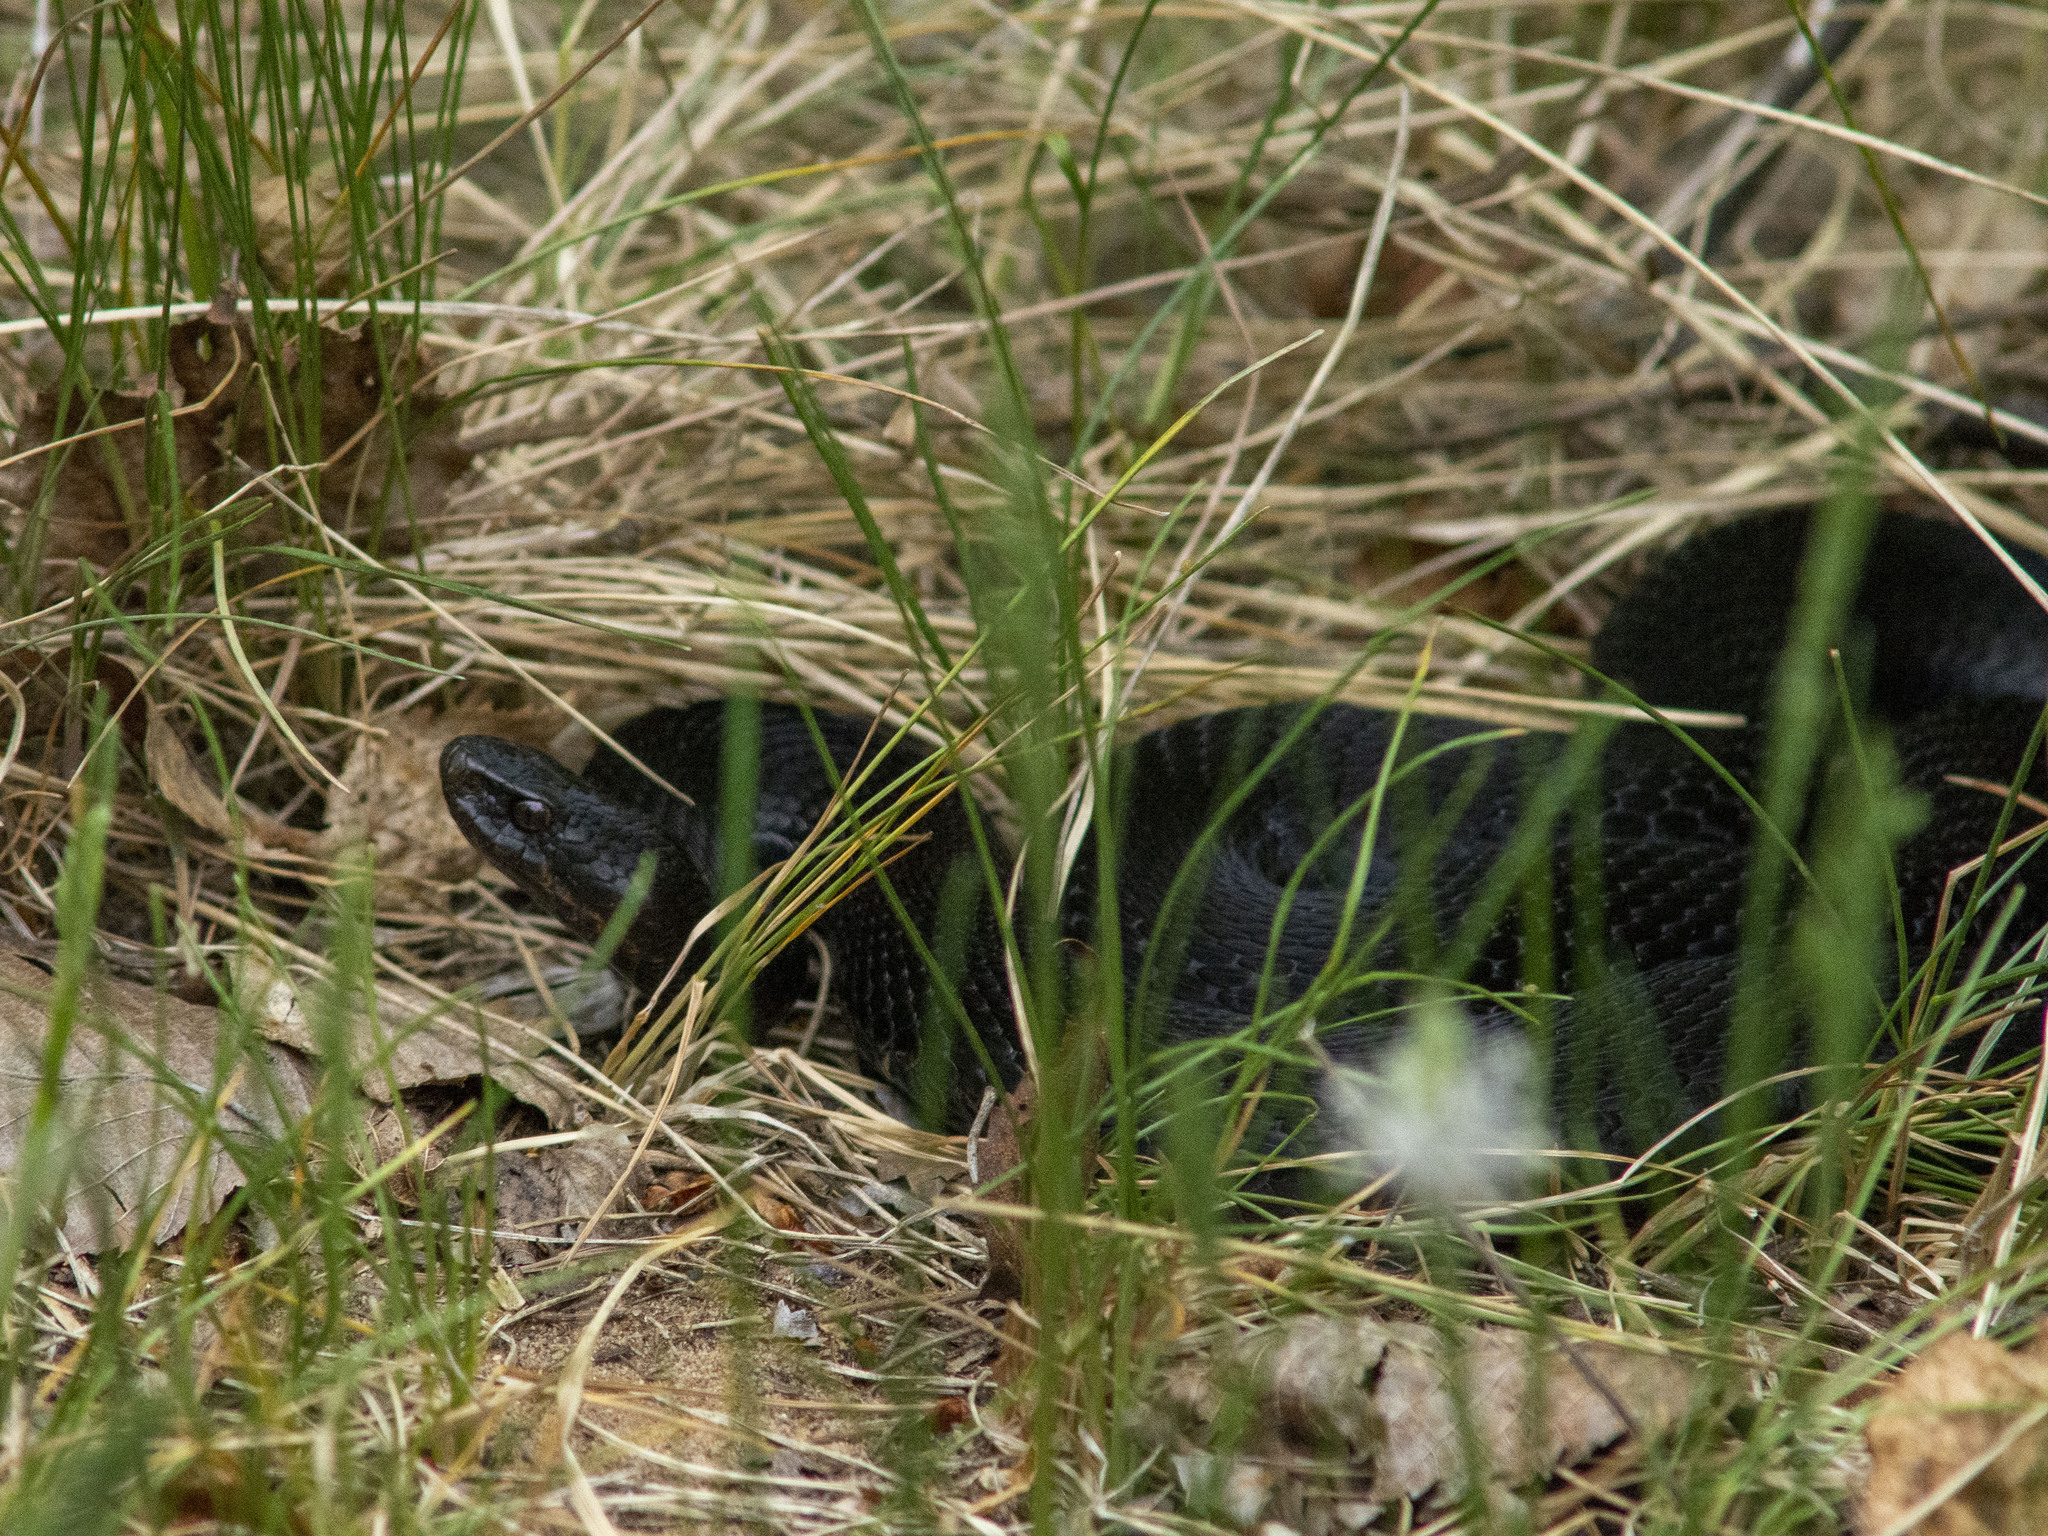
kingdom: Animalia
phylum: Chordata
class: Squamata
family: Viperidae
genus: Vipera
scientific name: Vipera berus
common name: Adder
